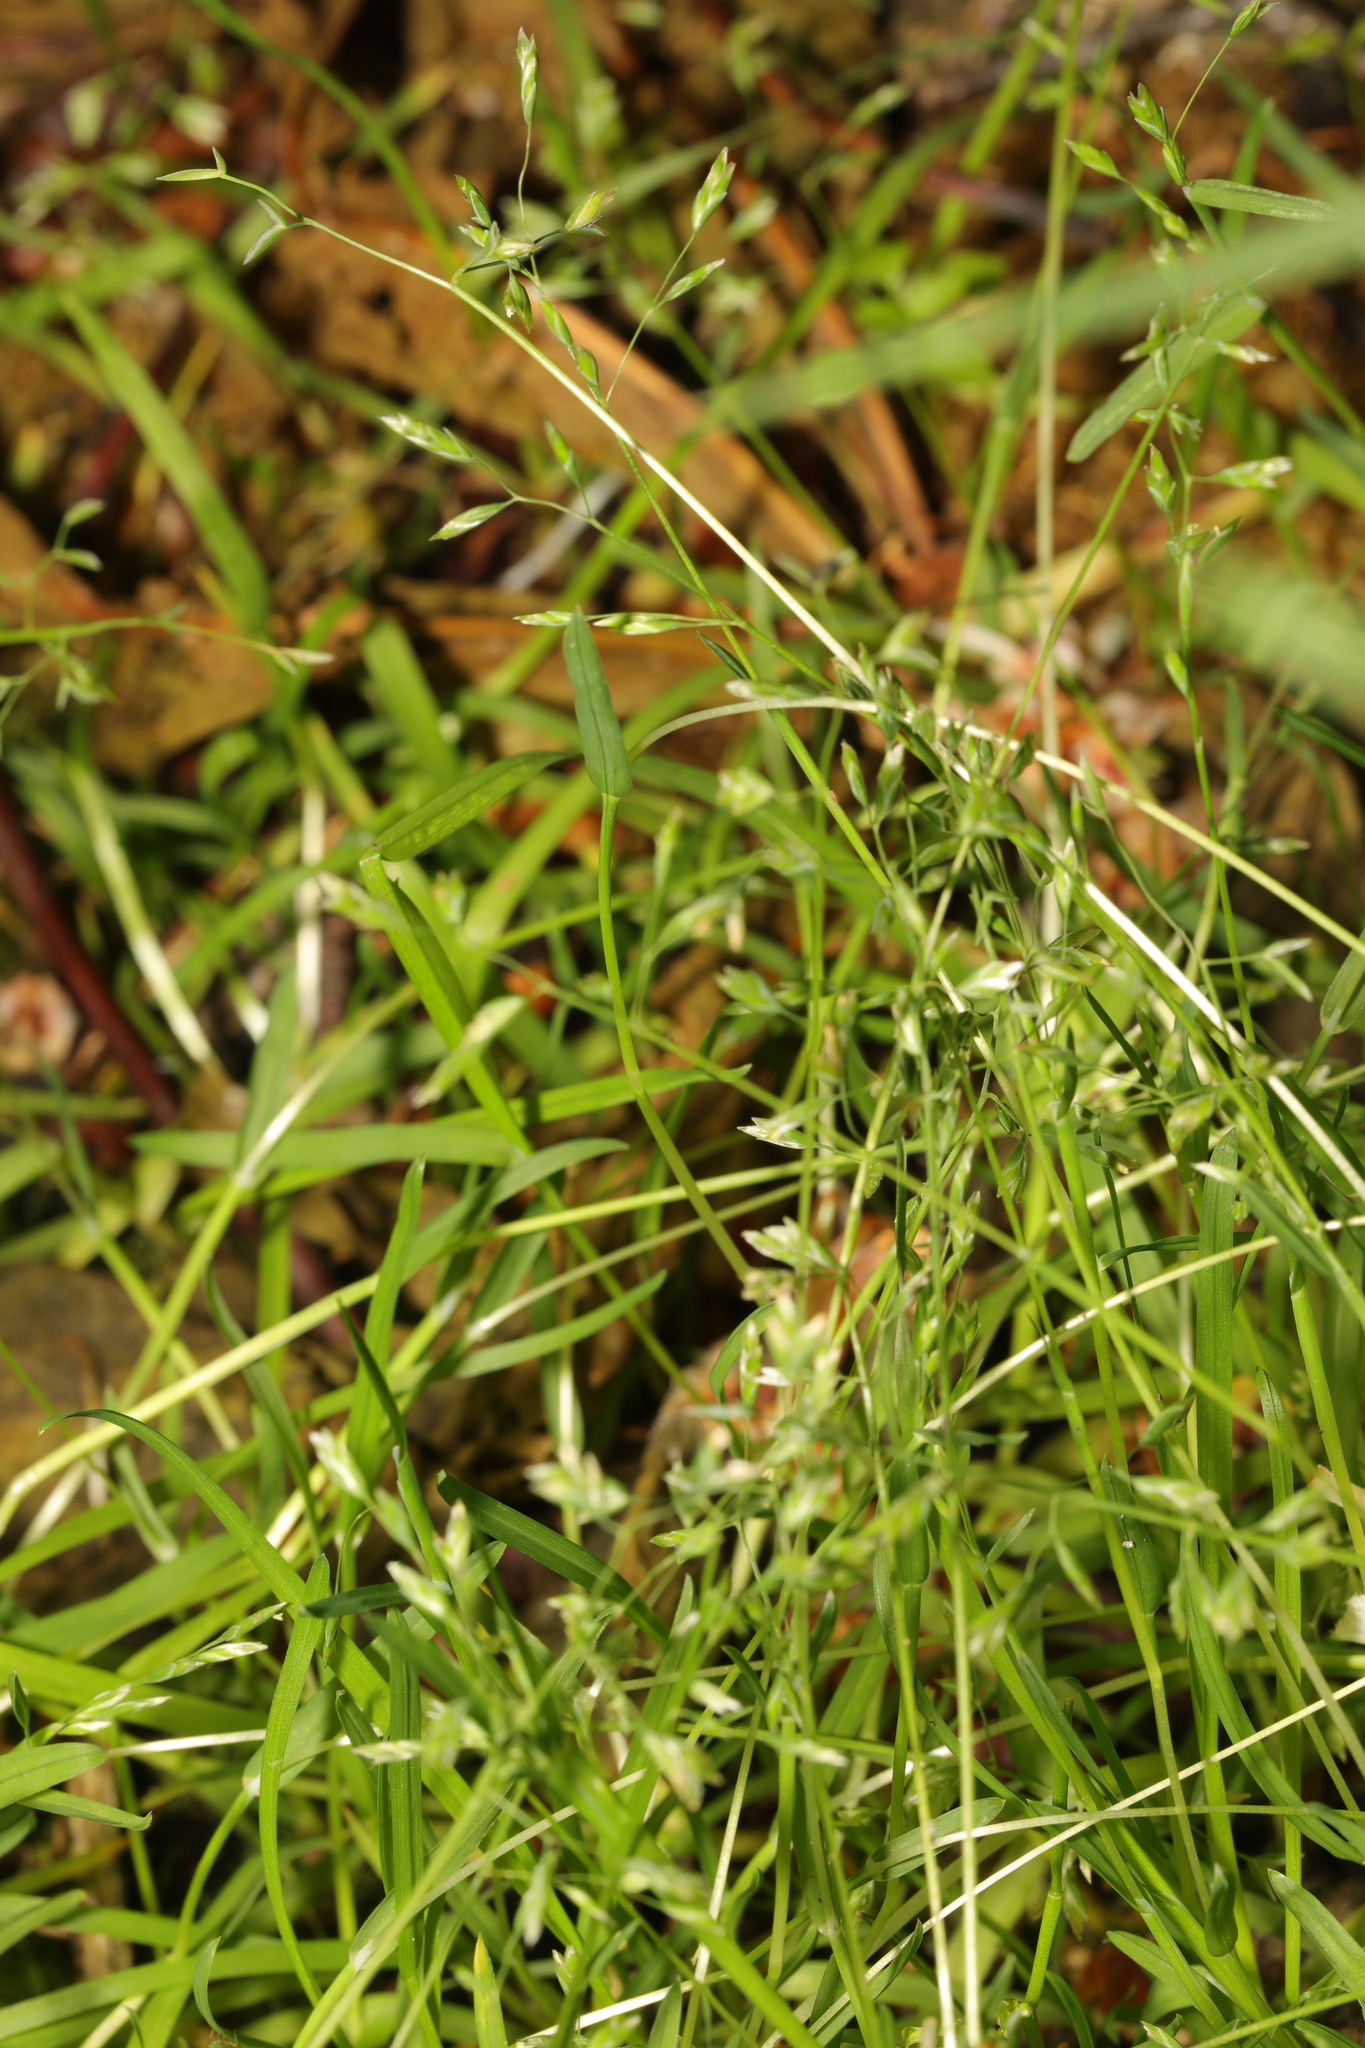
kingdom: Plantae
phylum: Tracheophyta
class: Liliopsida
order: Poales
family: Poaceae
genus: Poa
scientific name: Poa annua
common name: Annual bluegrass
